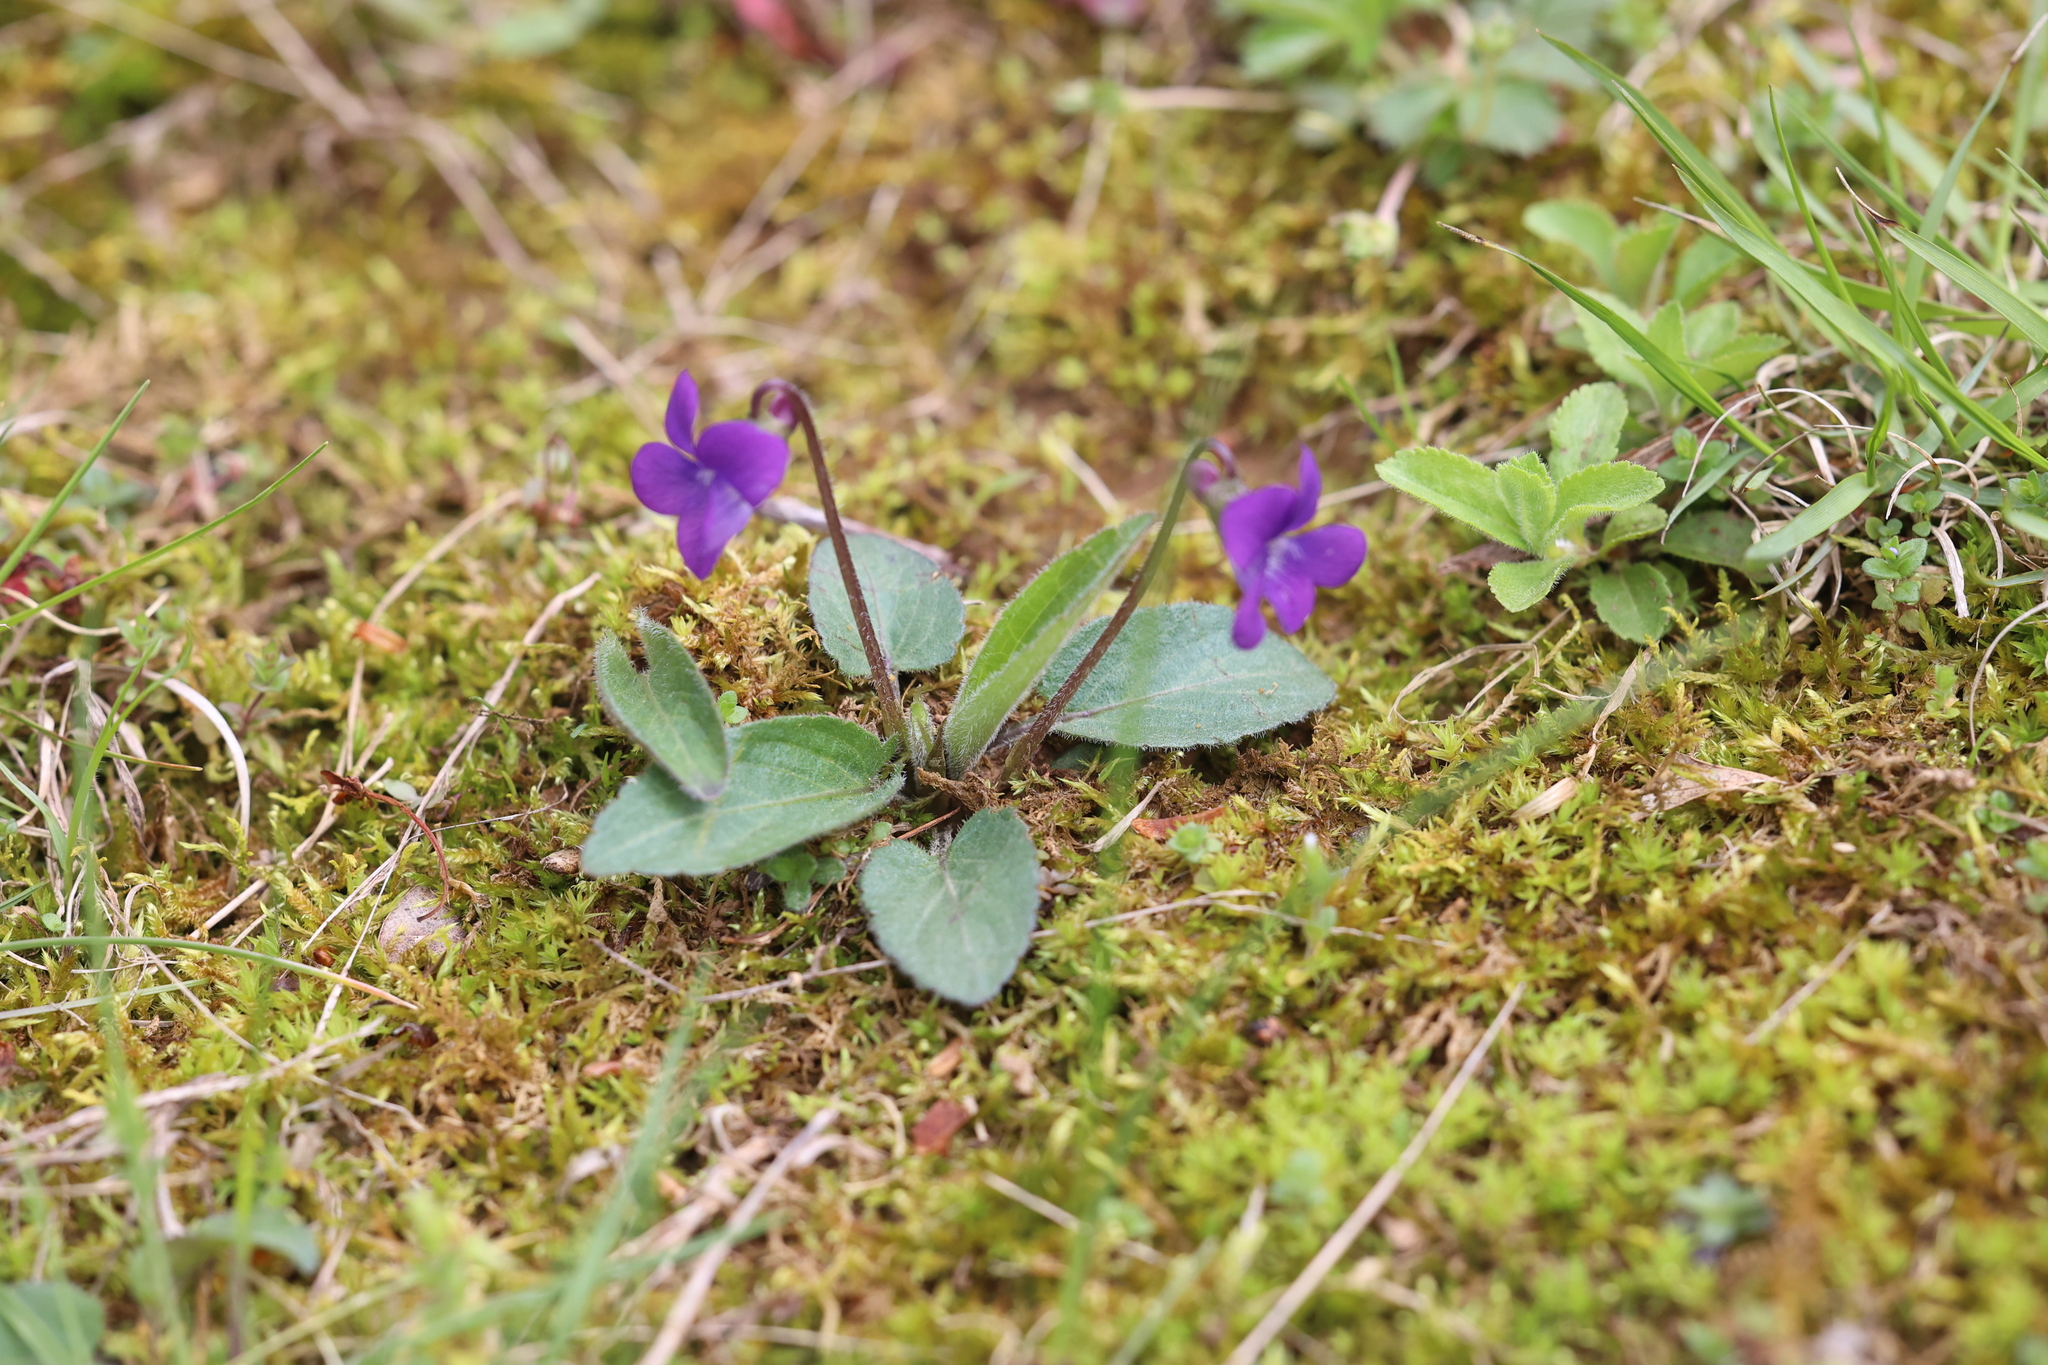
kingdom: Plantae
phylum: Tracheophyta
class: Magnoliopsida
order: Malpighiales
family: Violaceae
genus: Viola
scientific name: Viola fimbriatula
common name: Sand violet
